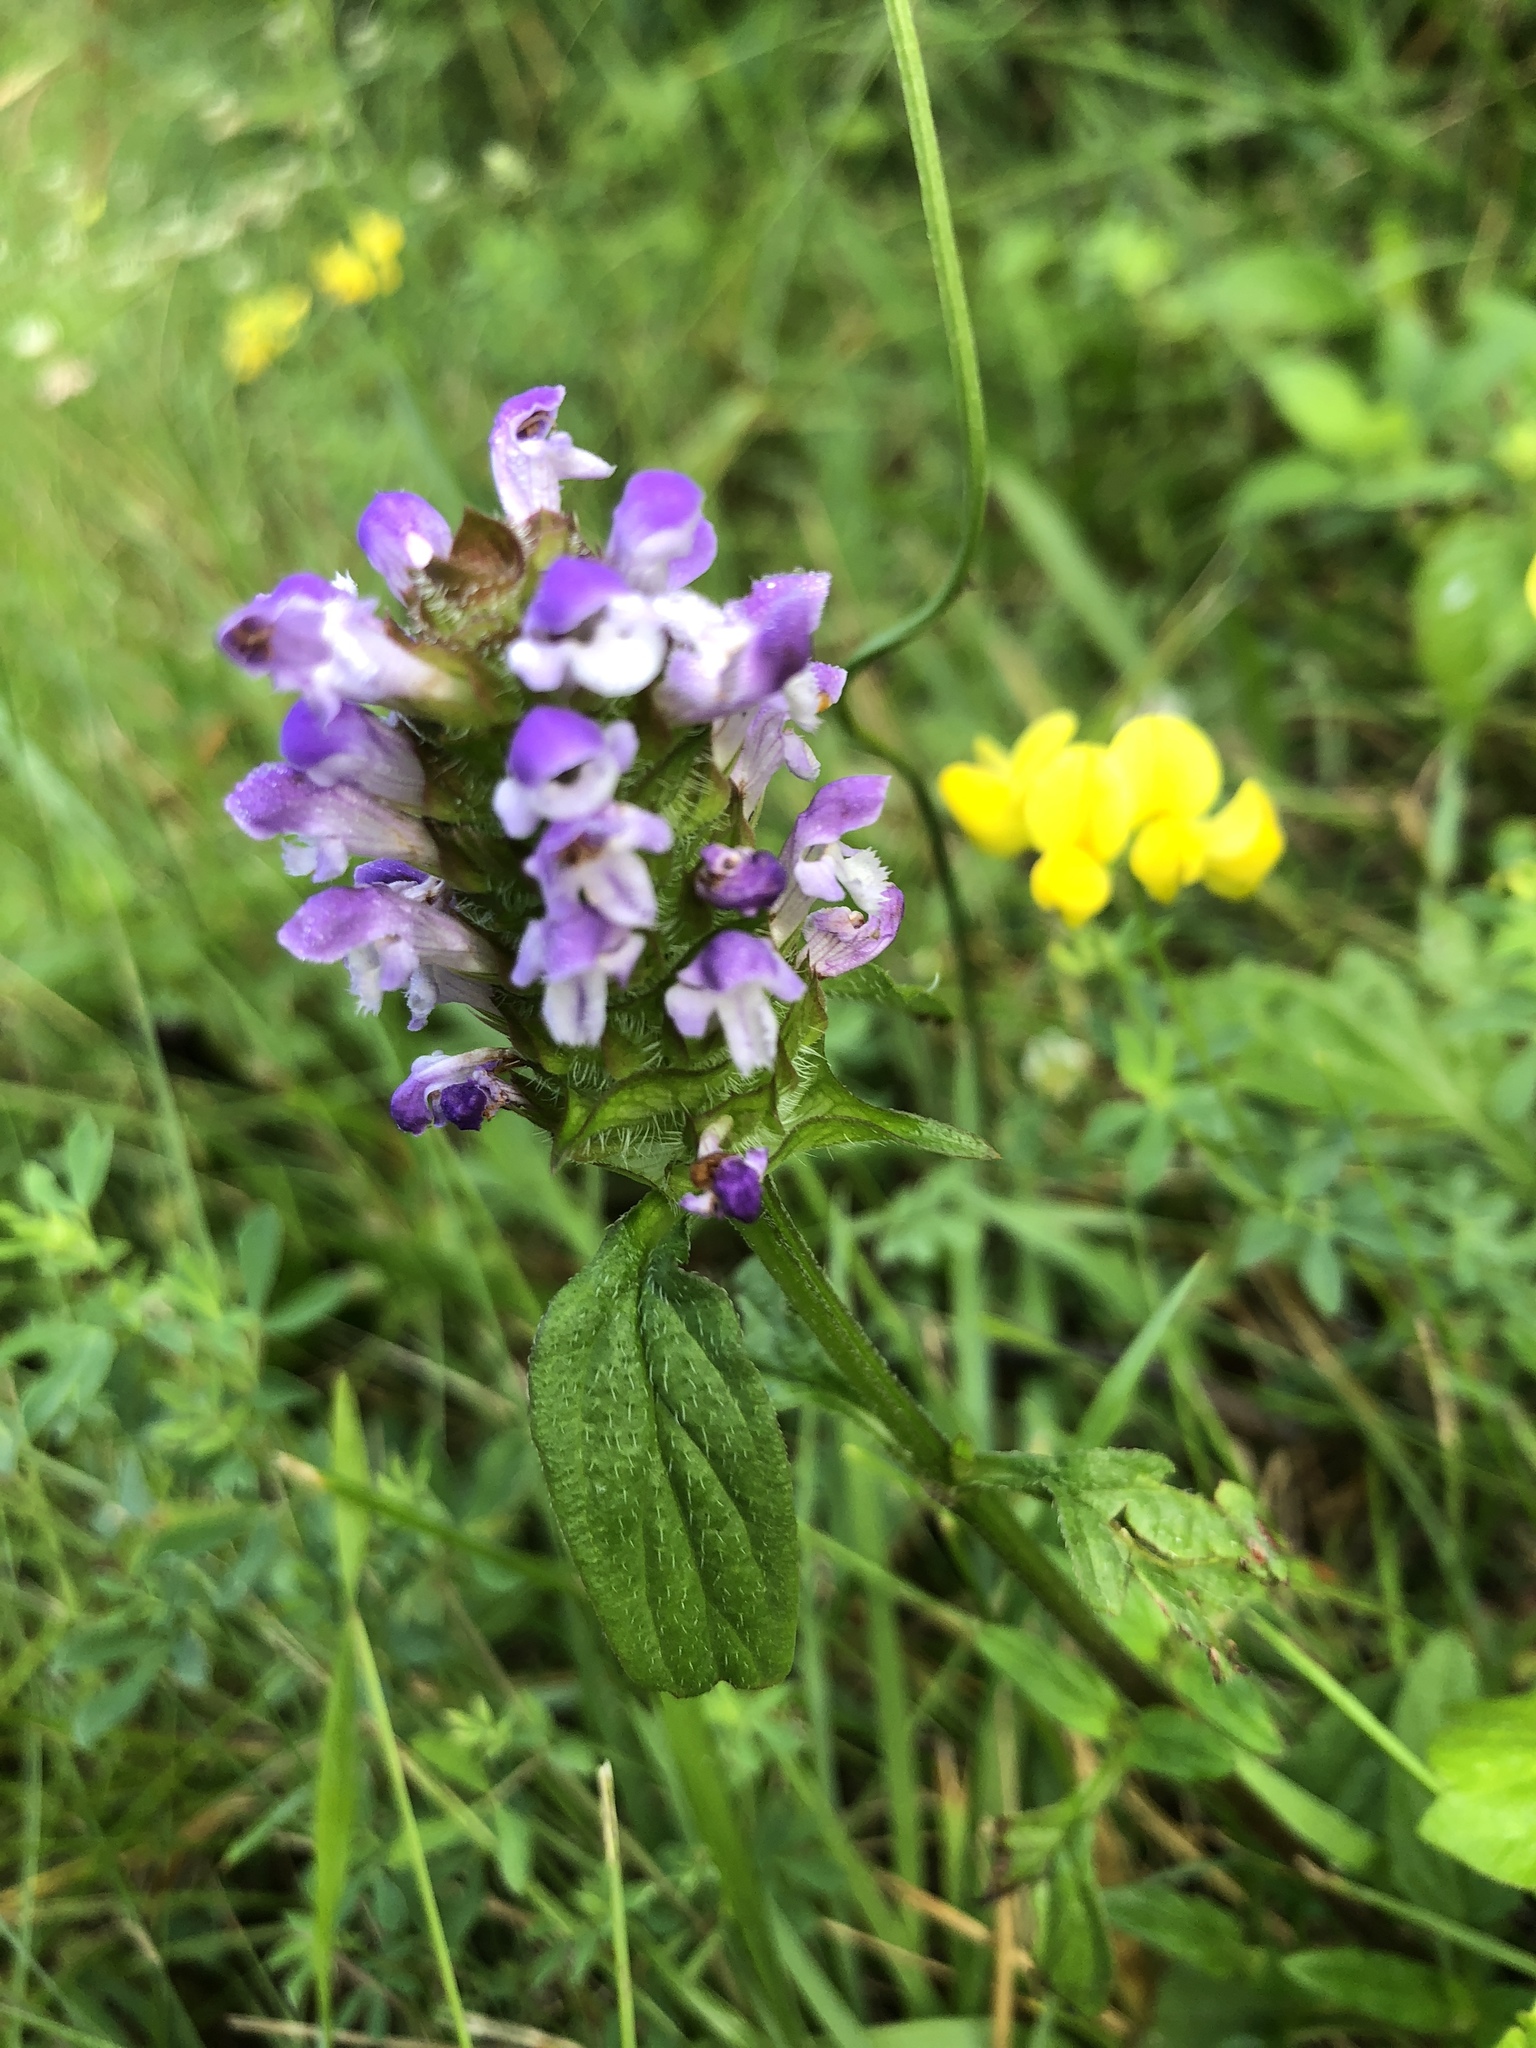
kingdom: Plantae
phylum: Tracheophyta
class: Magnoliopsida
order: Lamiales
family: Lamiaceae
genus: Prunella
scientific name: Prunella vulgaris
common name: Heal-all
